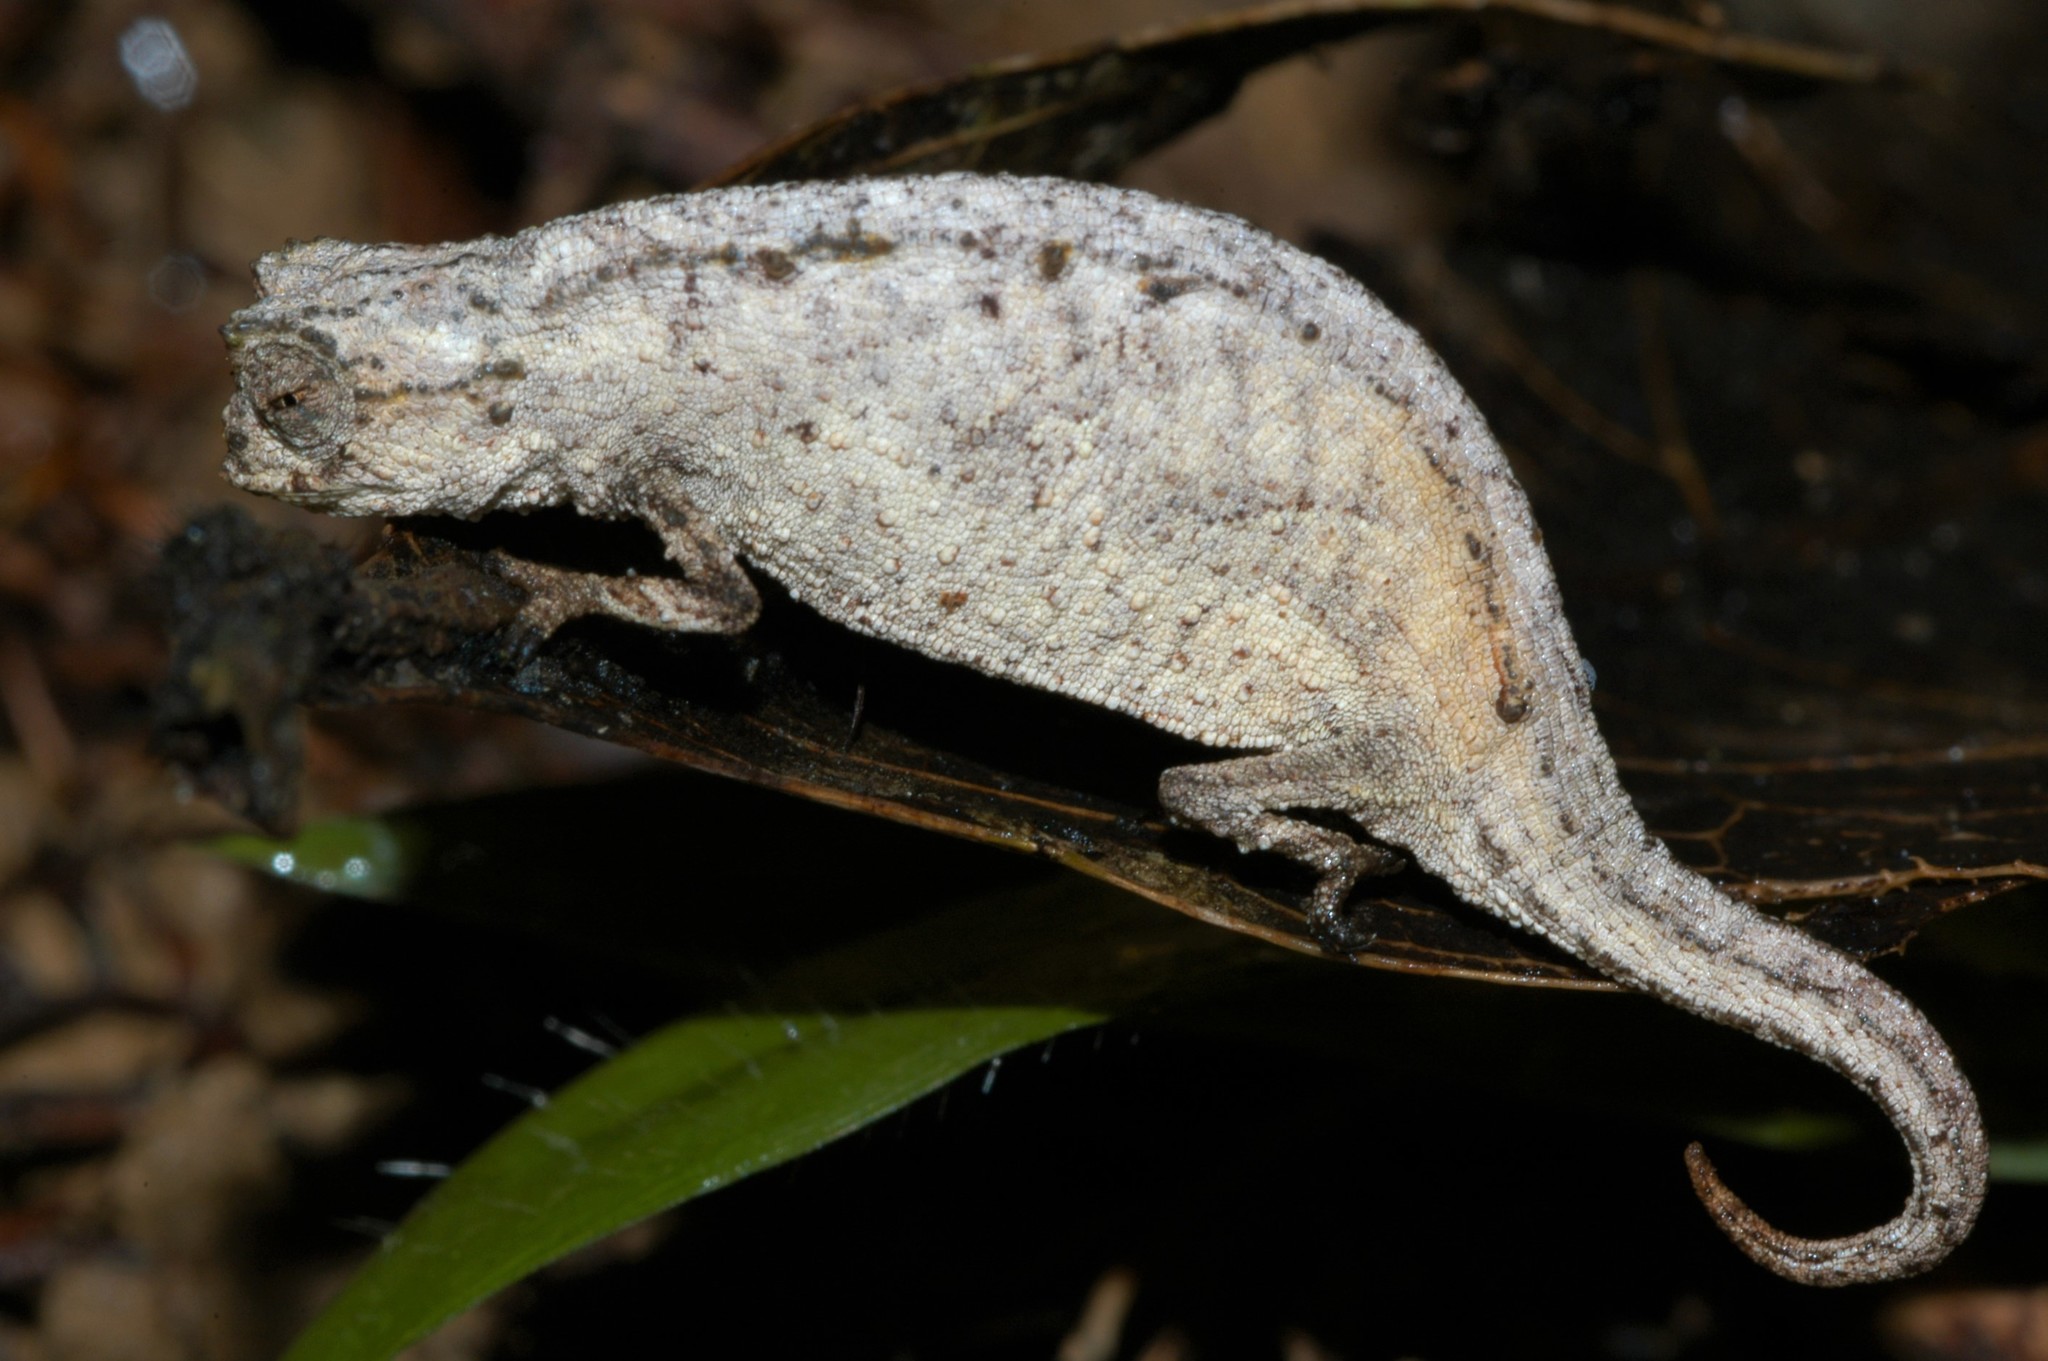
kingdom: Animalia
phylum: Chordata
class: Squamata
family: Chamaeleonidae
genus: Brookesia
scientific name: Brookesia ramanantsoai
